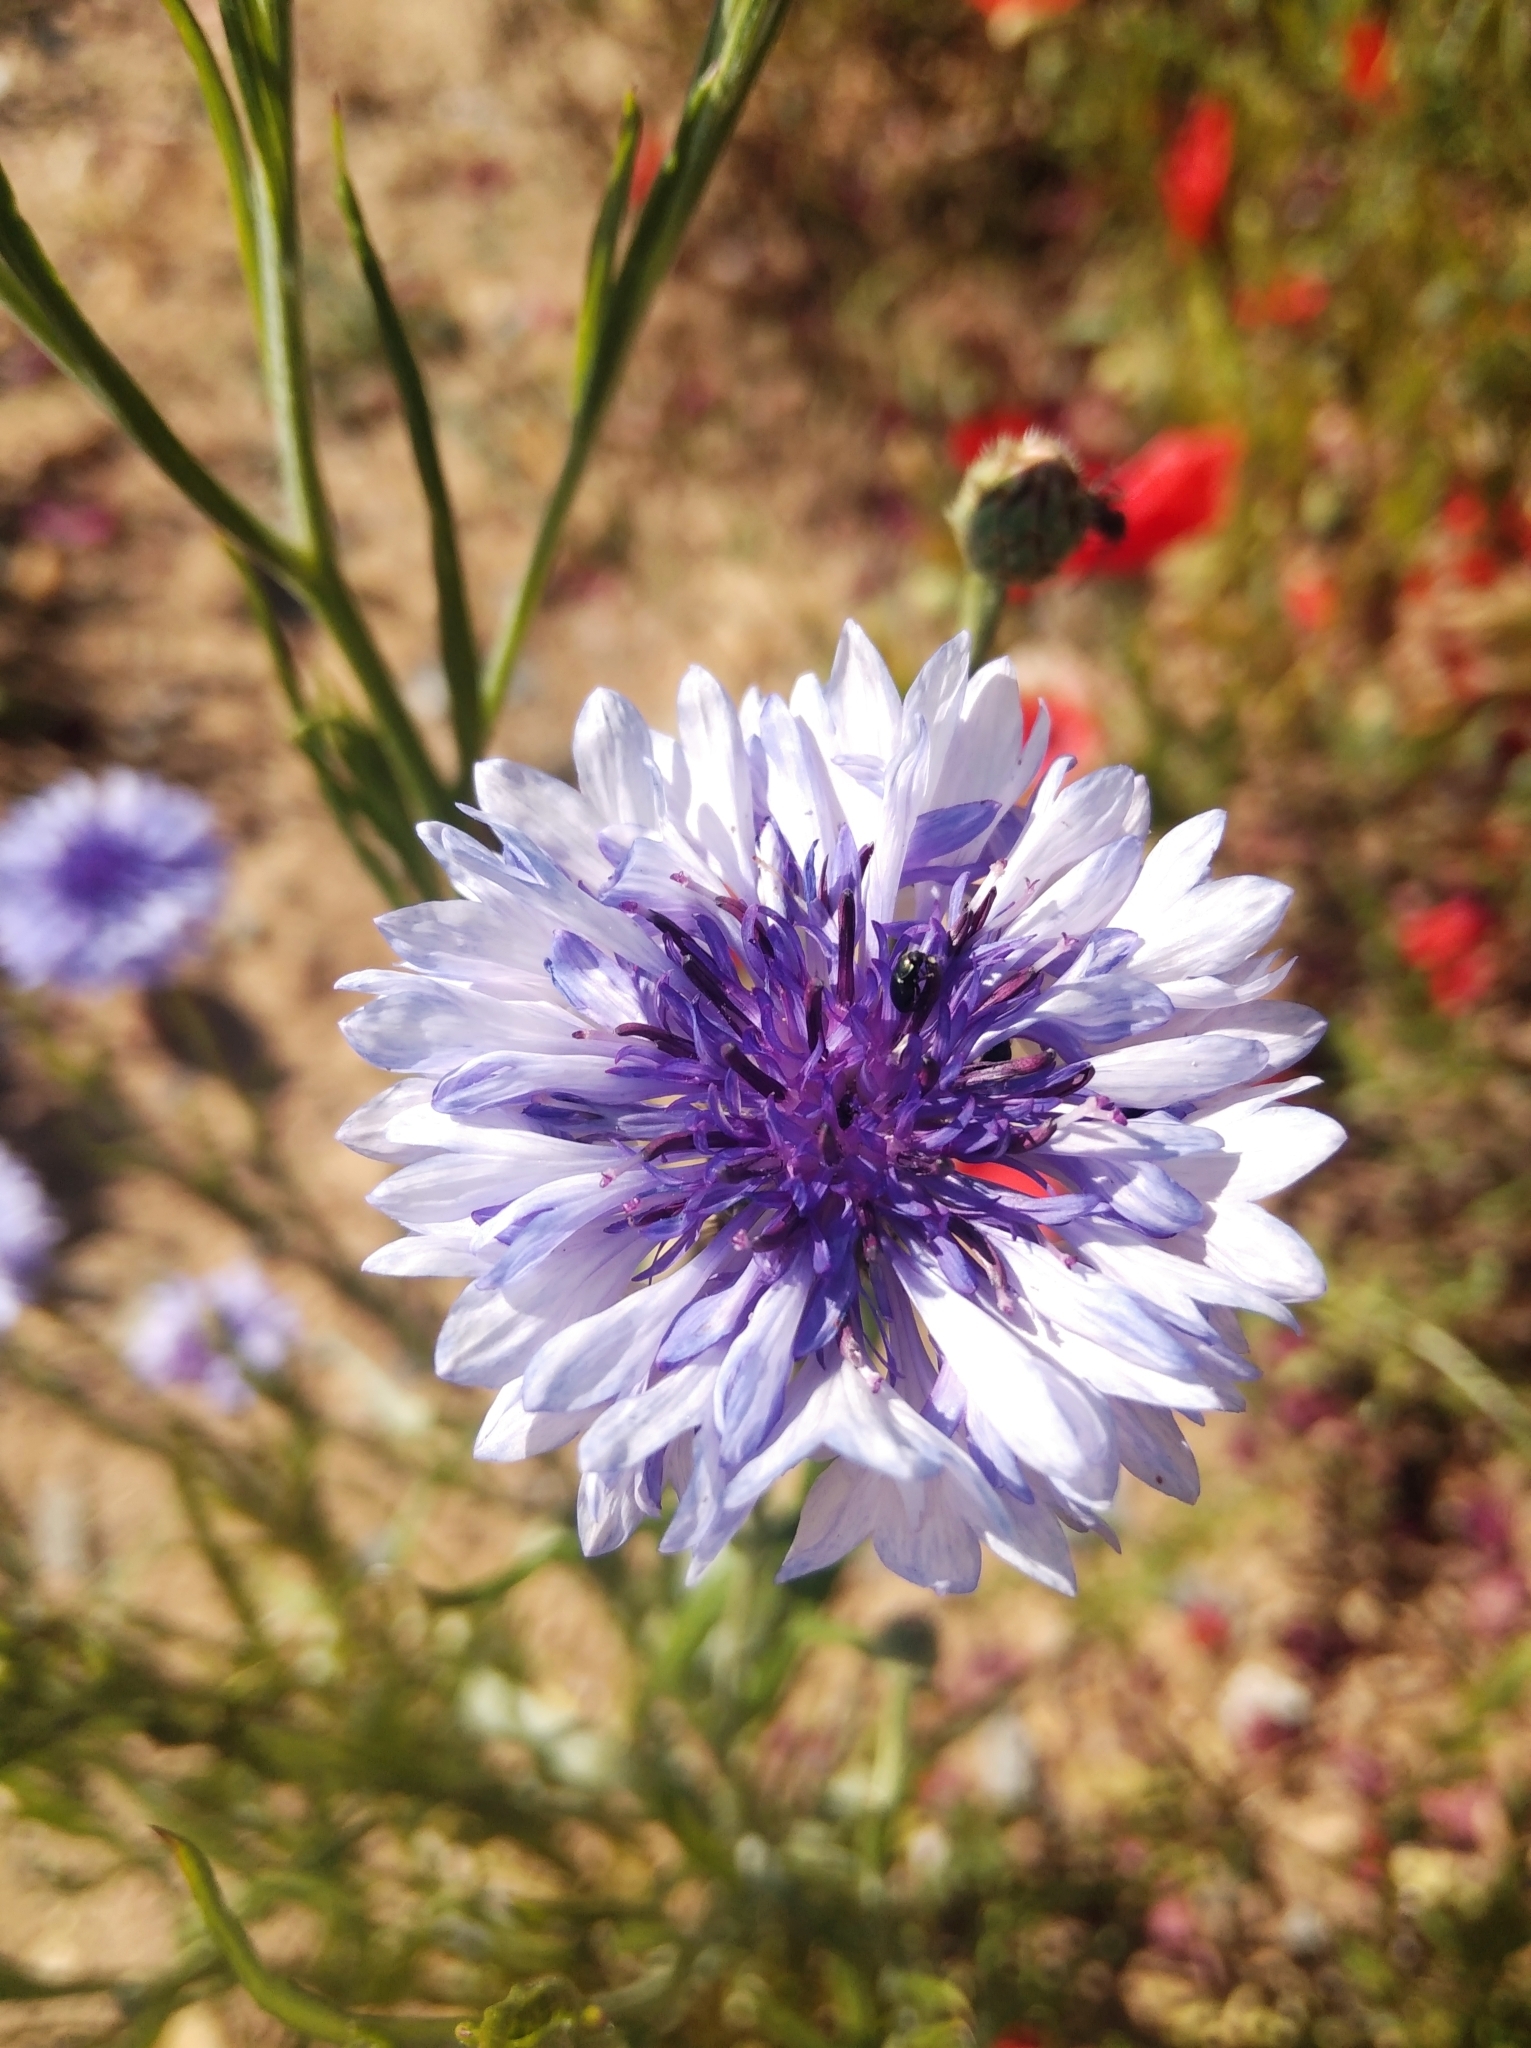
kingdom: Plantae
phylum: Tracheophyta
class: Magnoliopsida
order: Asterales
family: Asteraceae
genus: Centaurea
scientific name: Centaurea cyanus
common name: Cornflower
